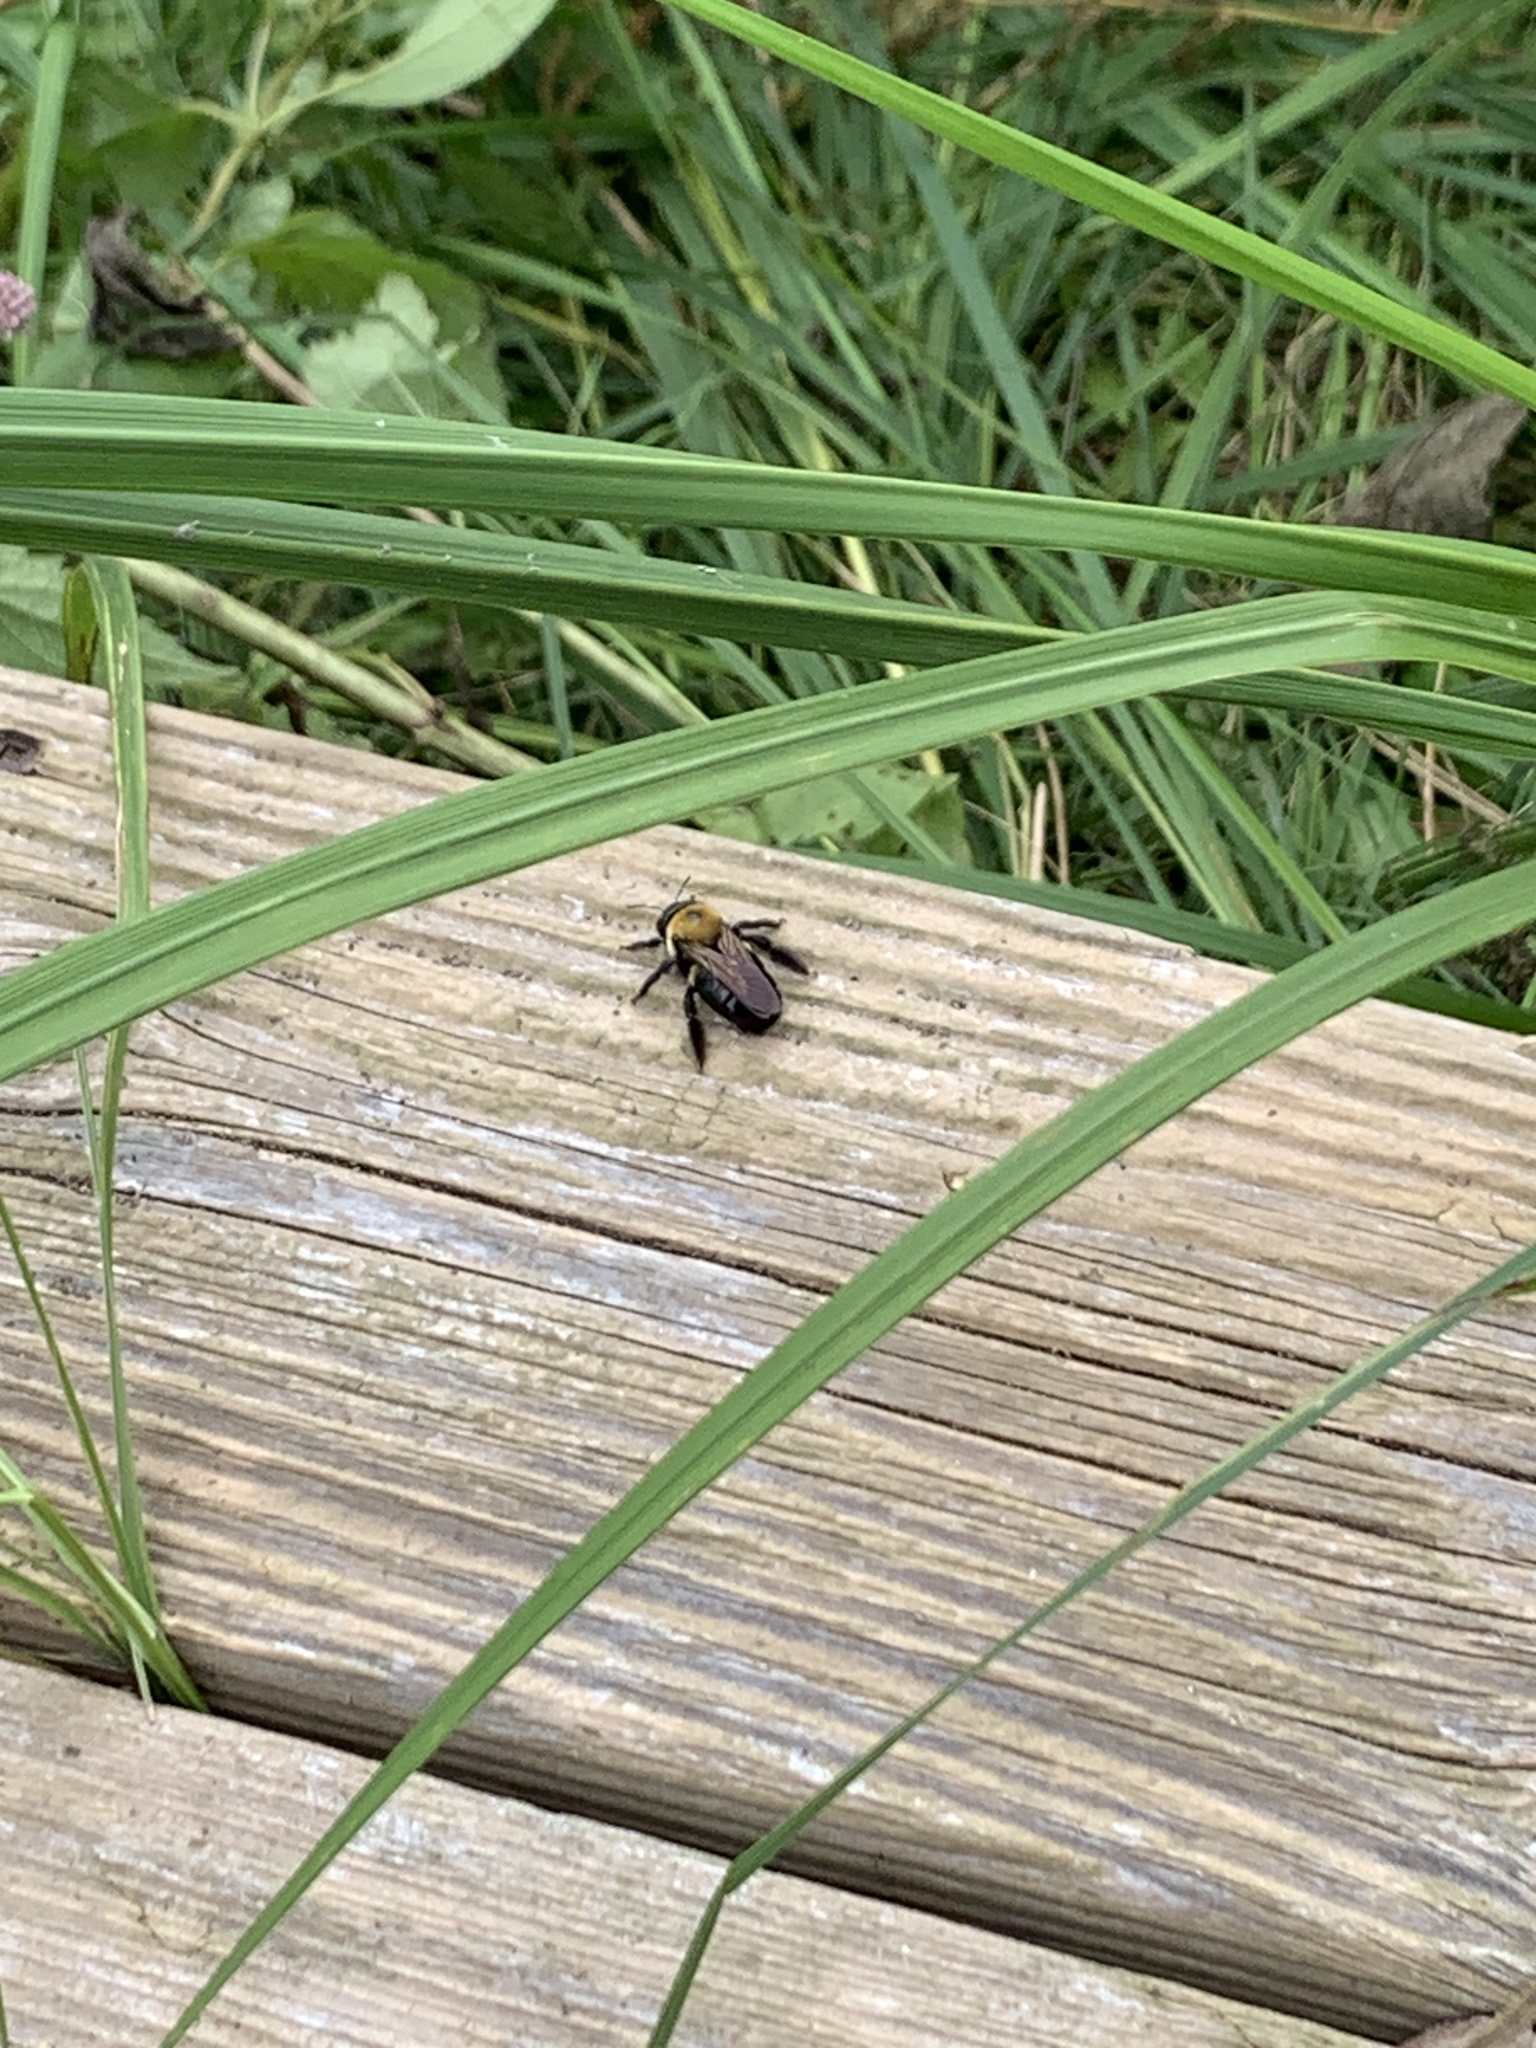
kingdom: Animalia
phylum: Arthropoda
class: Insecta
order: Hymenoptera
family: Apidae
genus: Xylocopa
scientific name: Xylocopa virginica
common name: Carpenter bee
